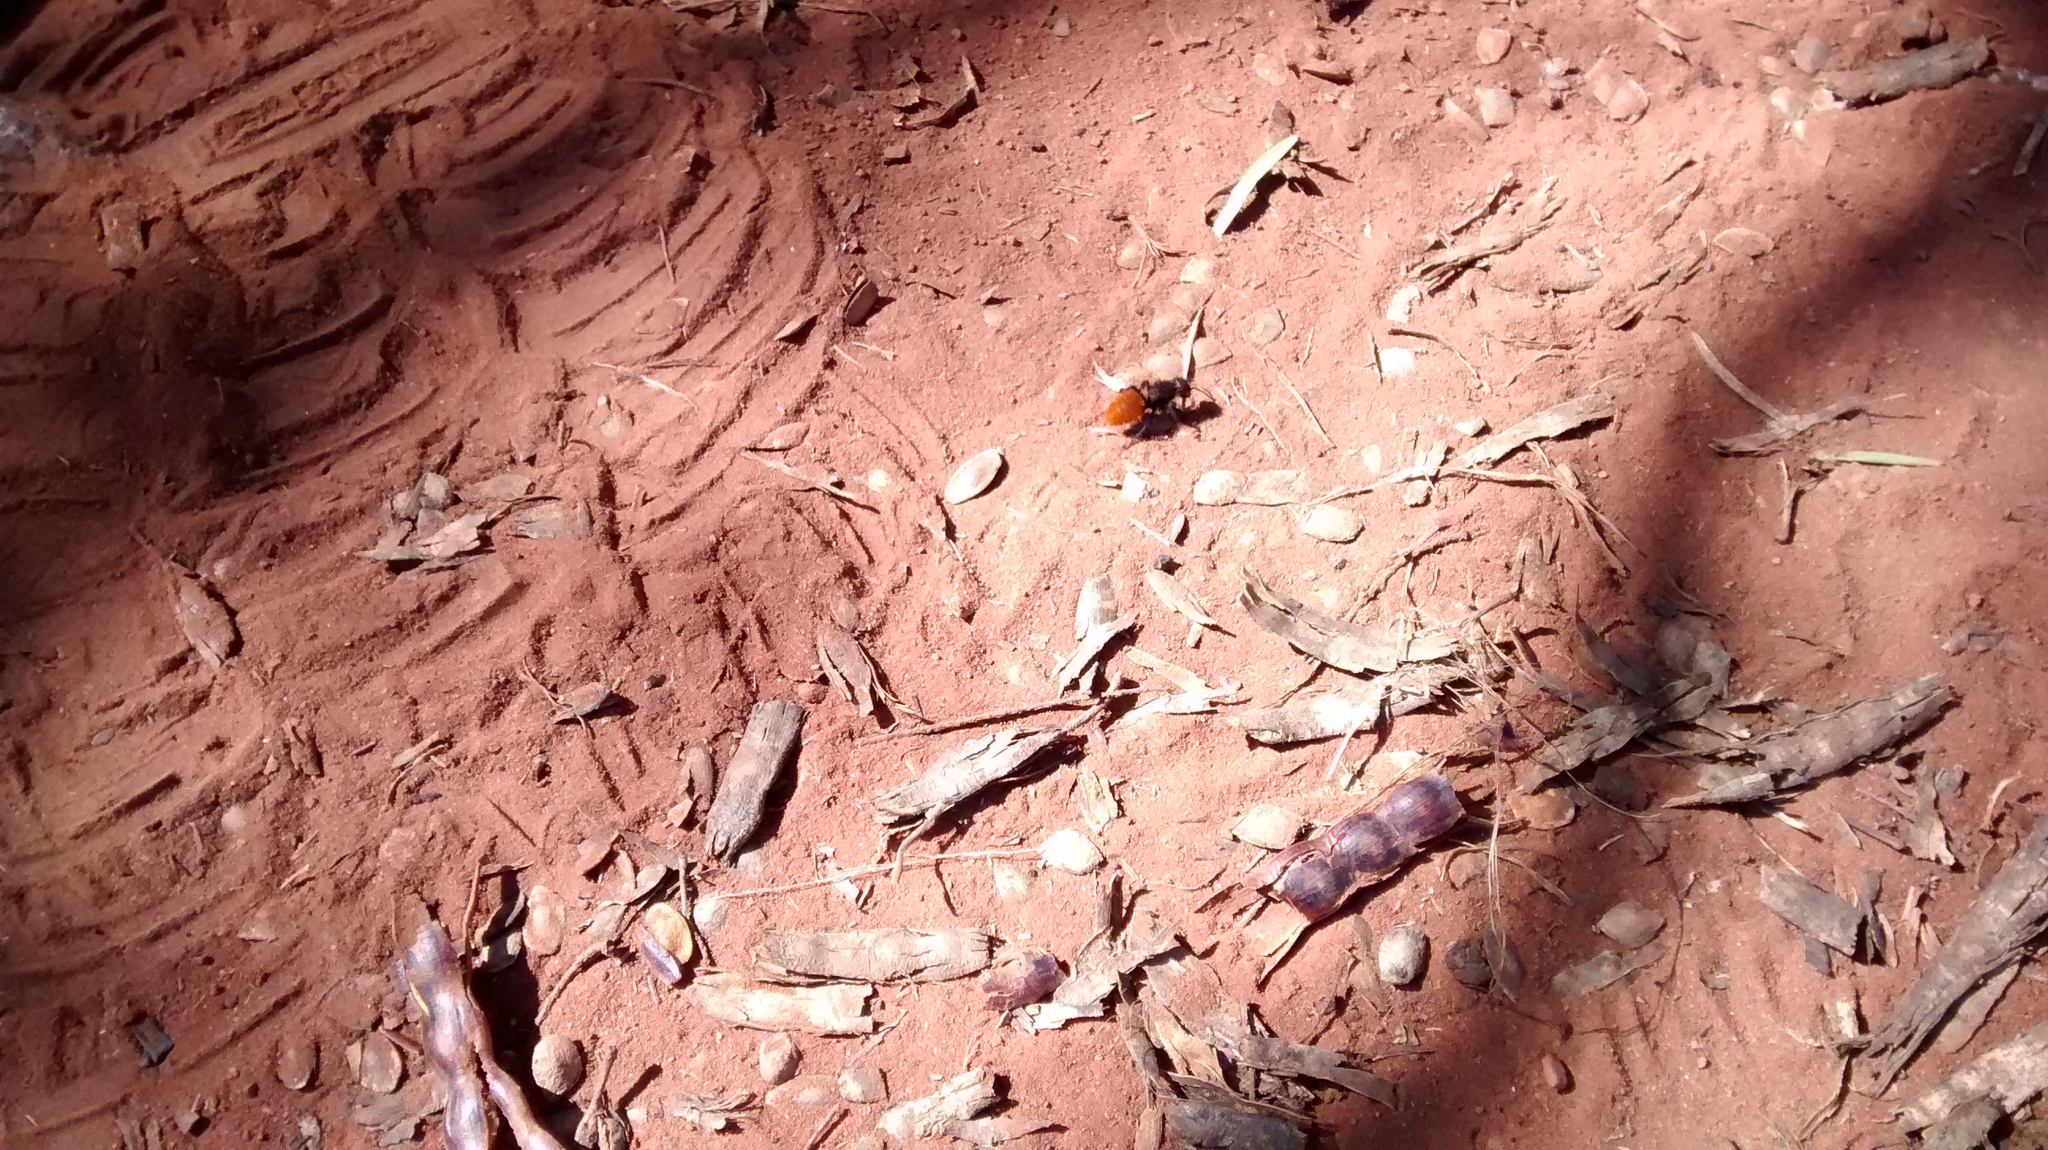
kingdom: Animalia
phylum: Arthropoda
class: Insecta
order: Hymenoptera
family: Mutillidae
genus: Dasymutilla
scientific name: Dasymutilla gorgon
